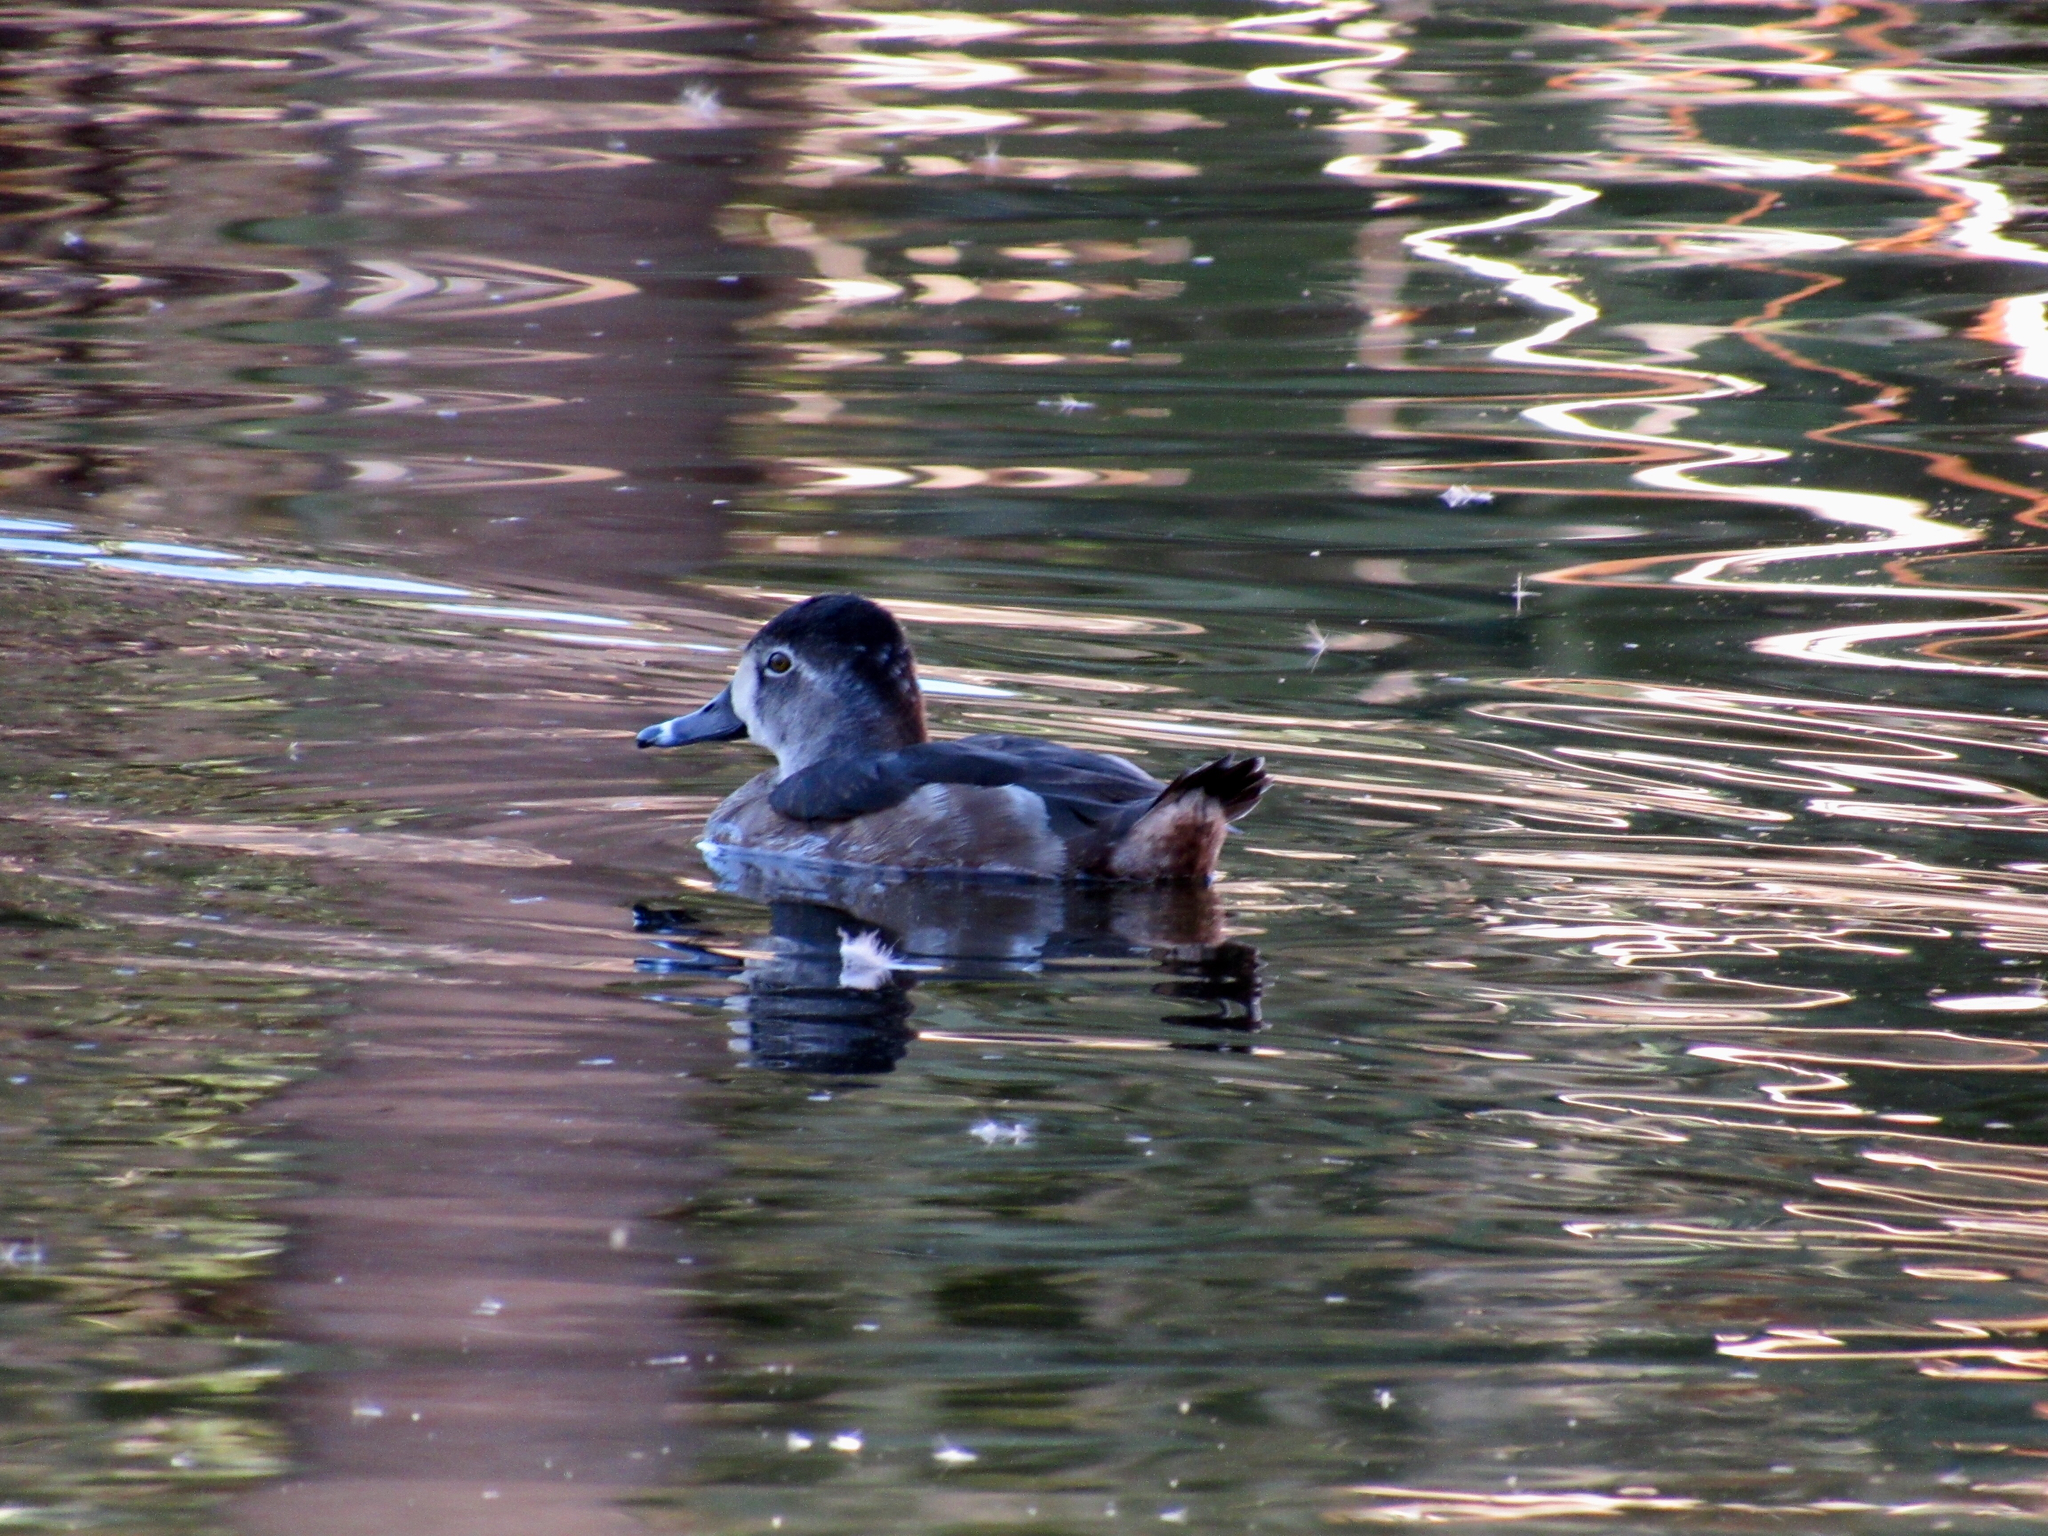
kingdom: Animalia
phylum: Chordata
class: Aves
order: Anseriformes
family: Anatidae
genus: Aythya
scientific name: Aythya collaris
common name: Ring-necked duck
